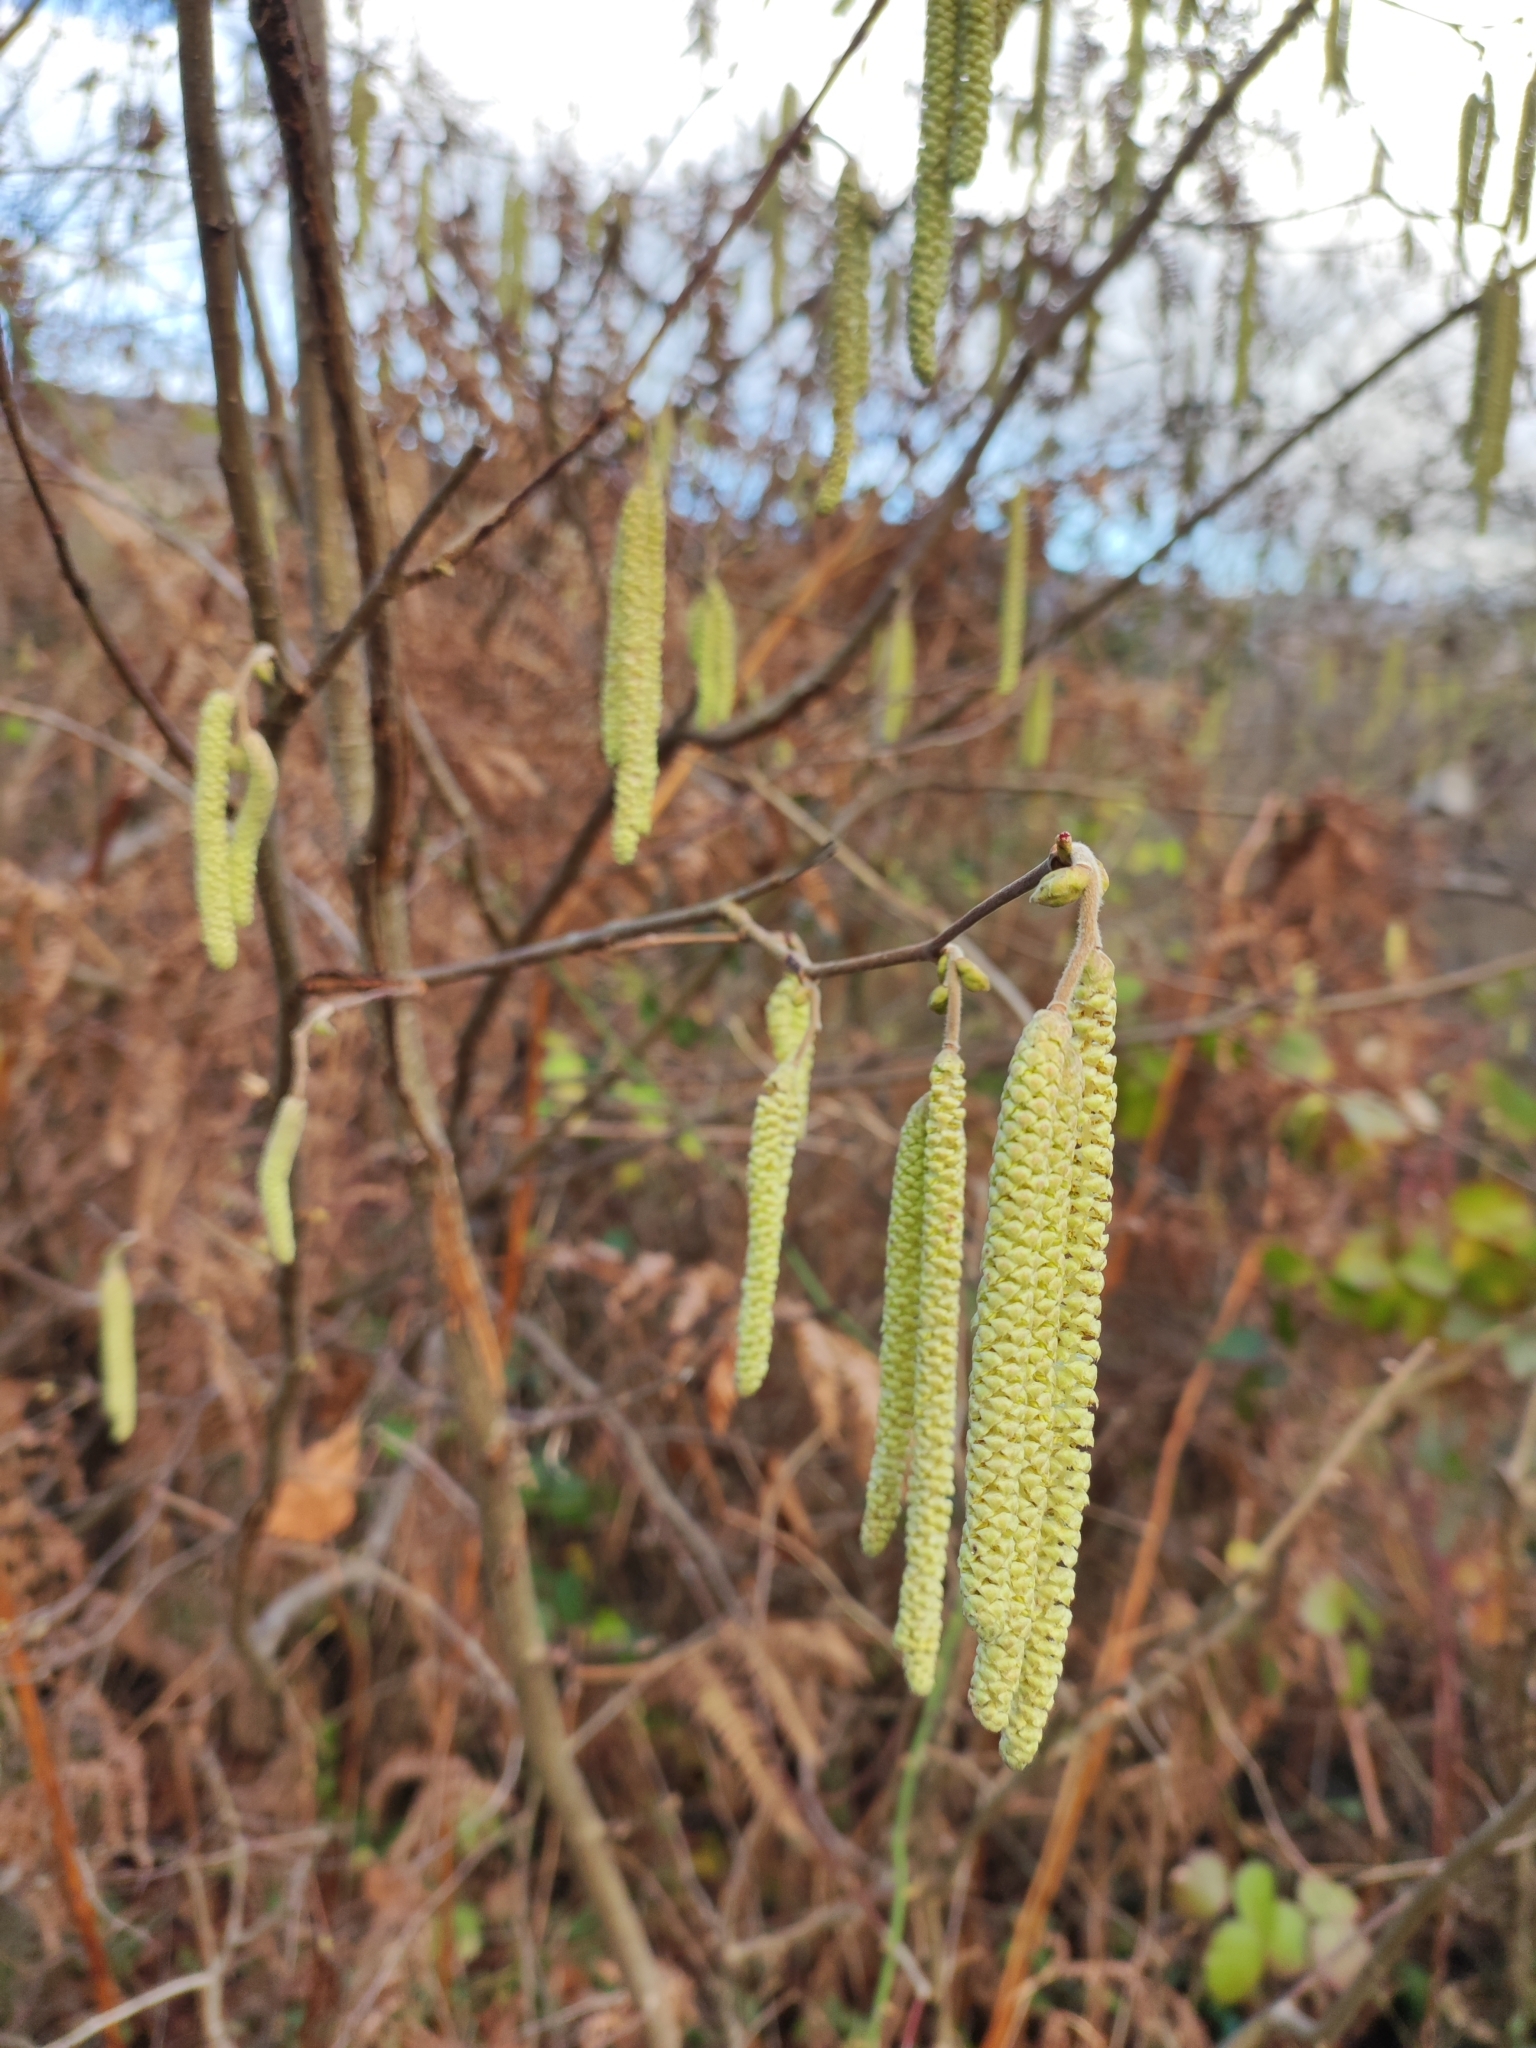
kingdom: Plantae
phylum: Tracheophyta
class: Magnoliopsida
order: Fagales
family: Betulaceae
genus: Corylus
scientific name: Corylus avellana
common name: European hazel
